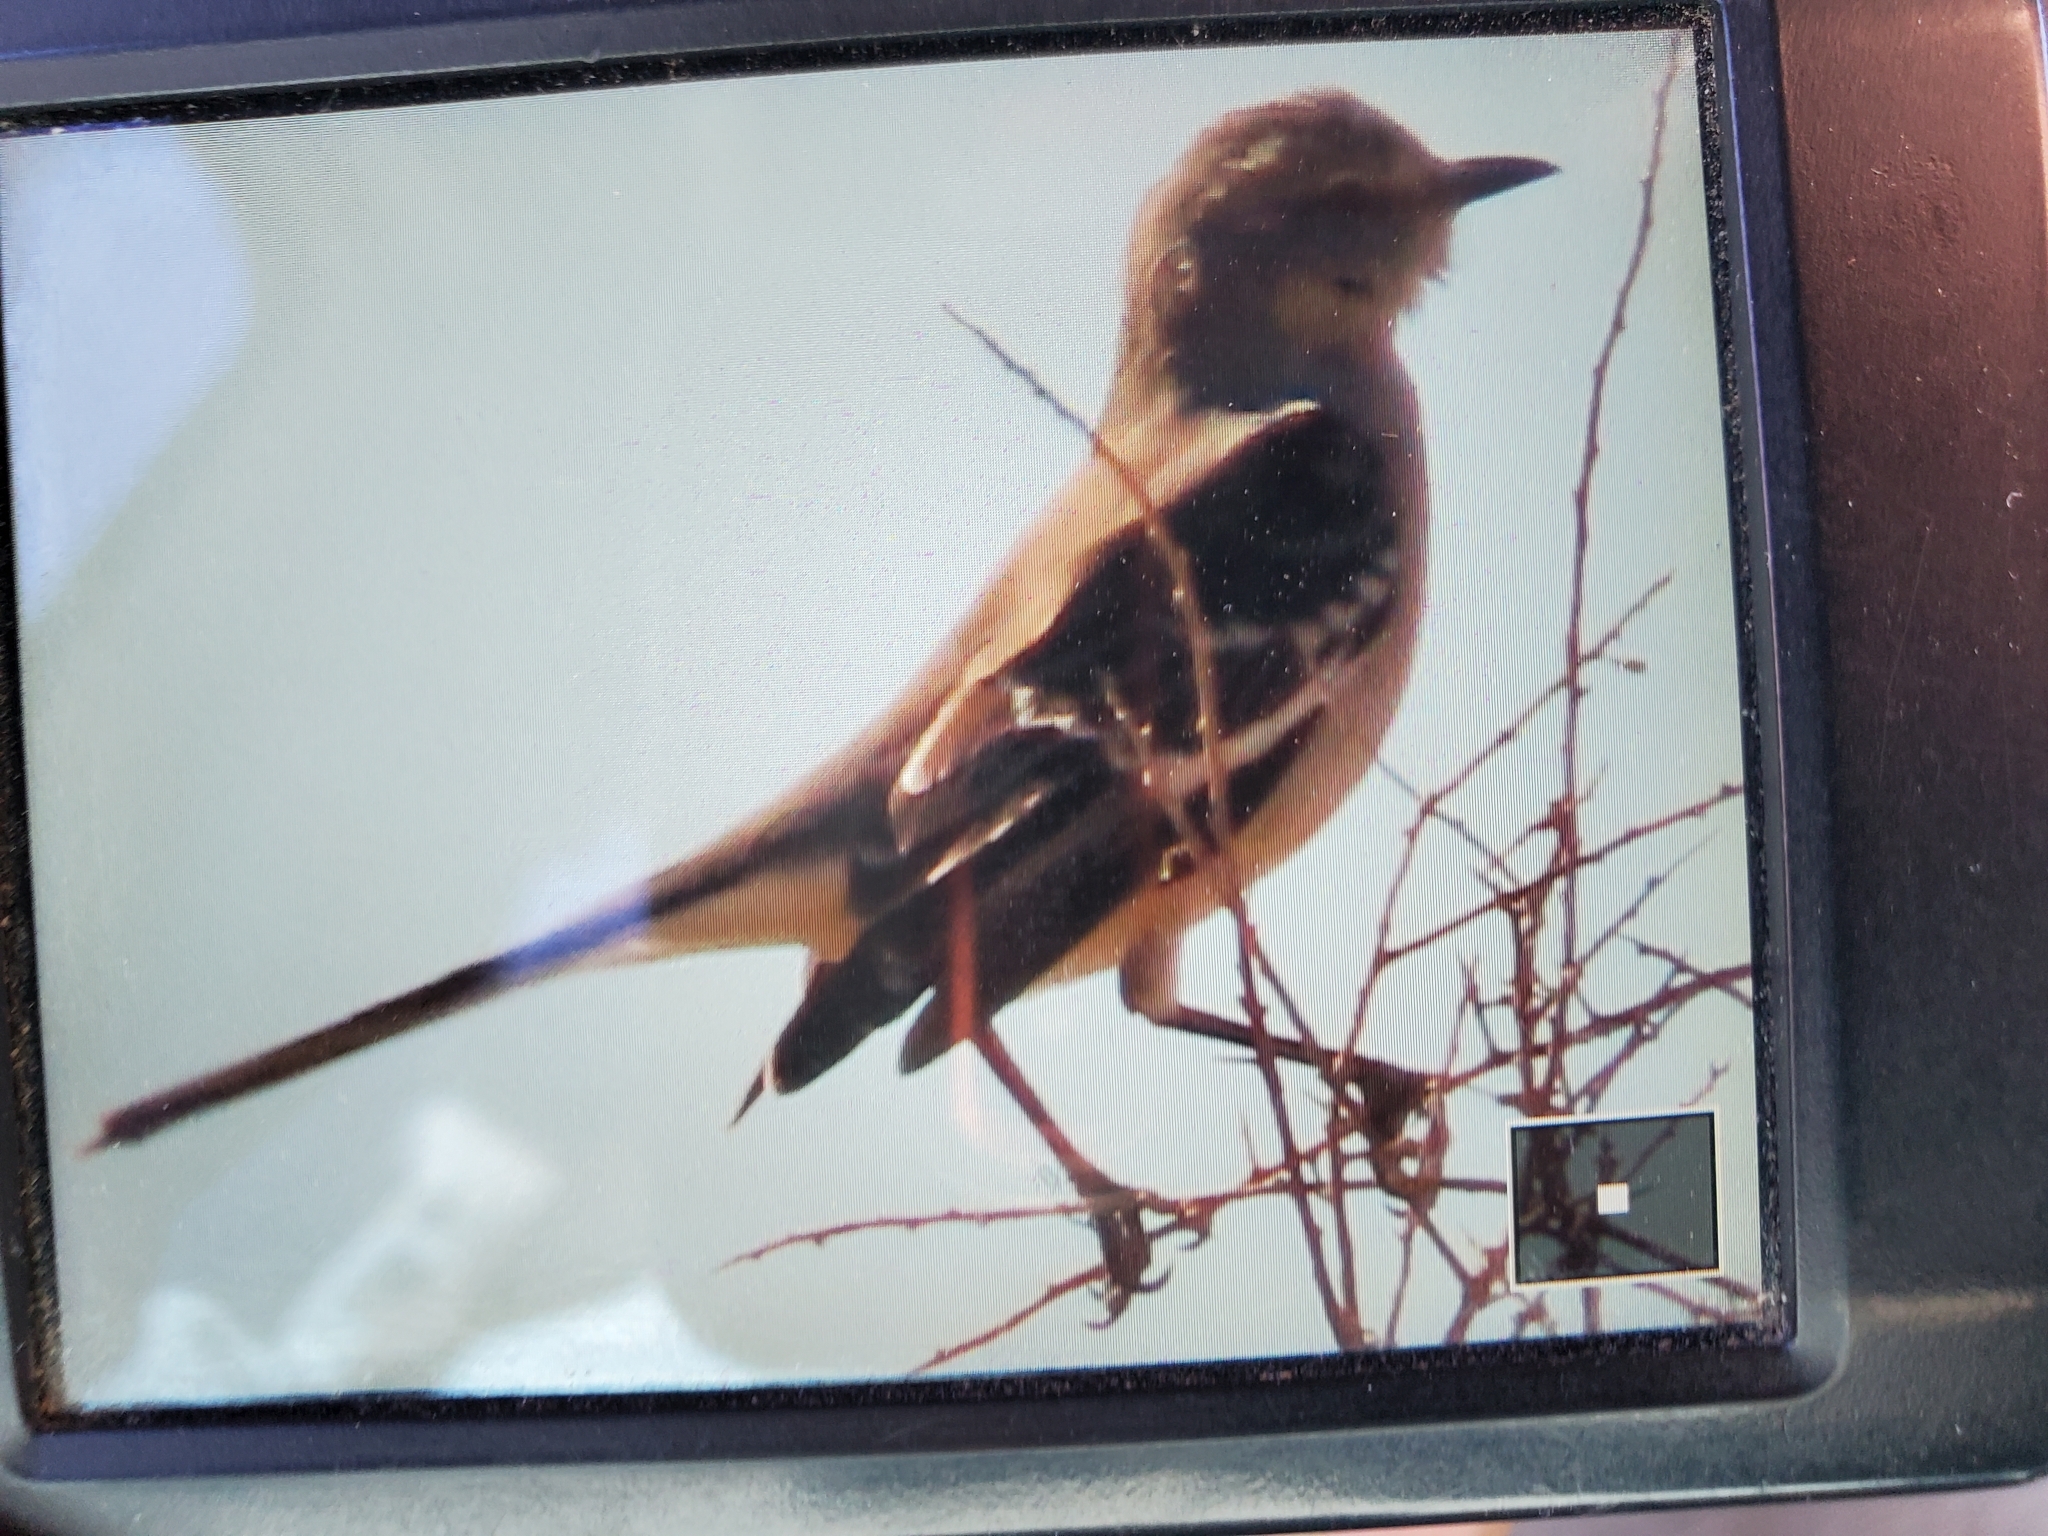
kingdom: Animalia
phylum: Chordata
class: Aves
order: Passeriformes
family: Mimidae
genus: Mimus
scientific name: Mimus polyglottos
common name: Northern mockingbird
